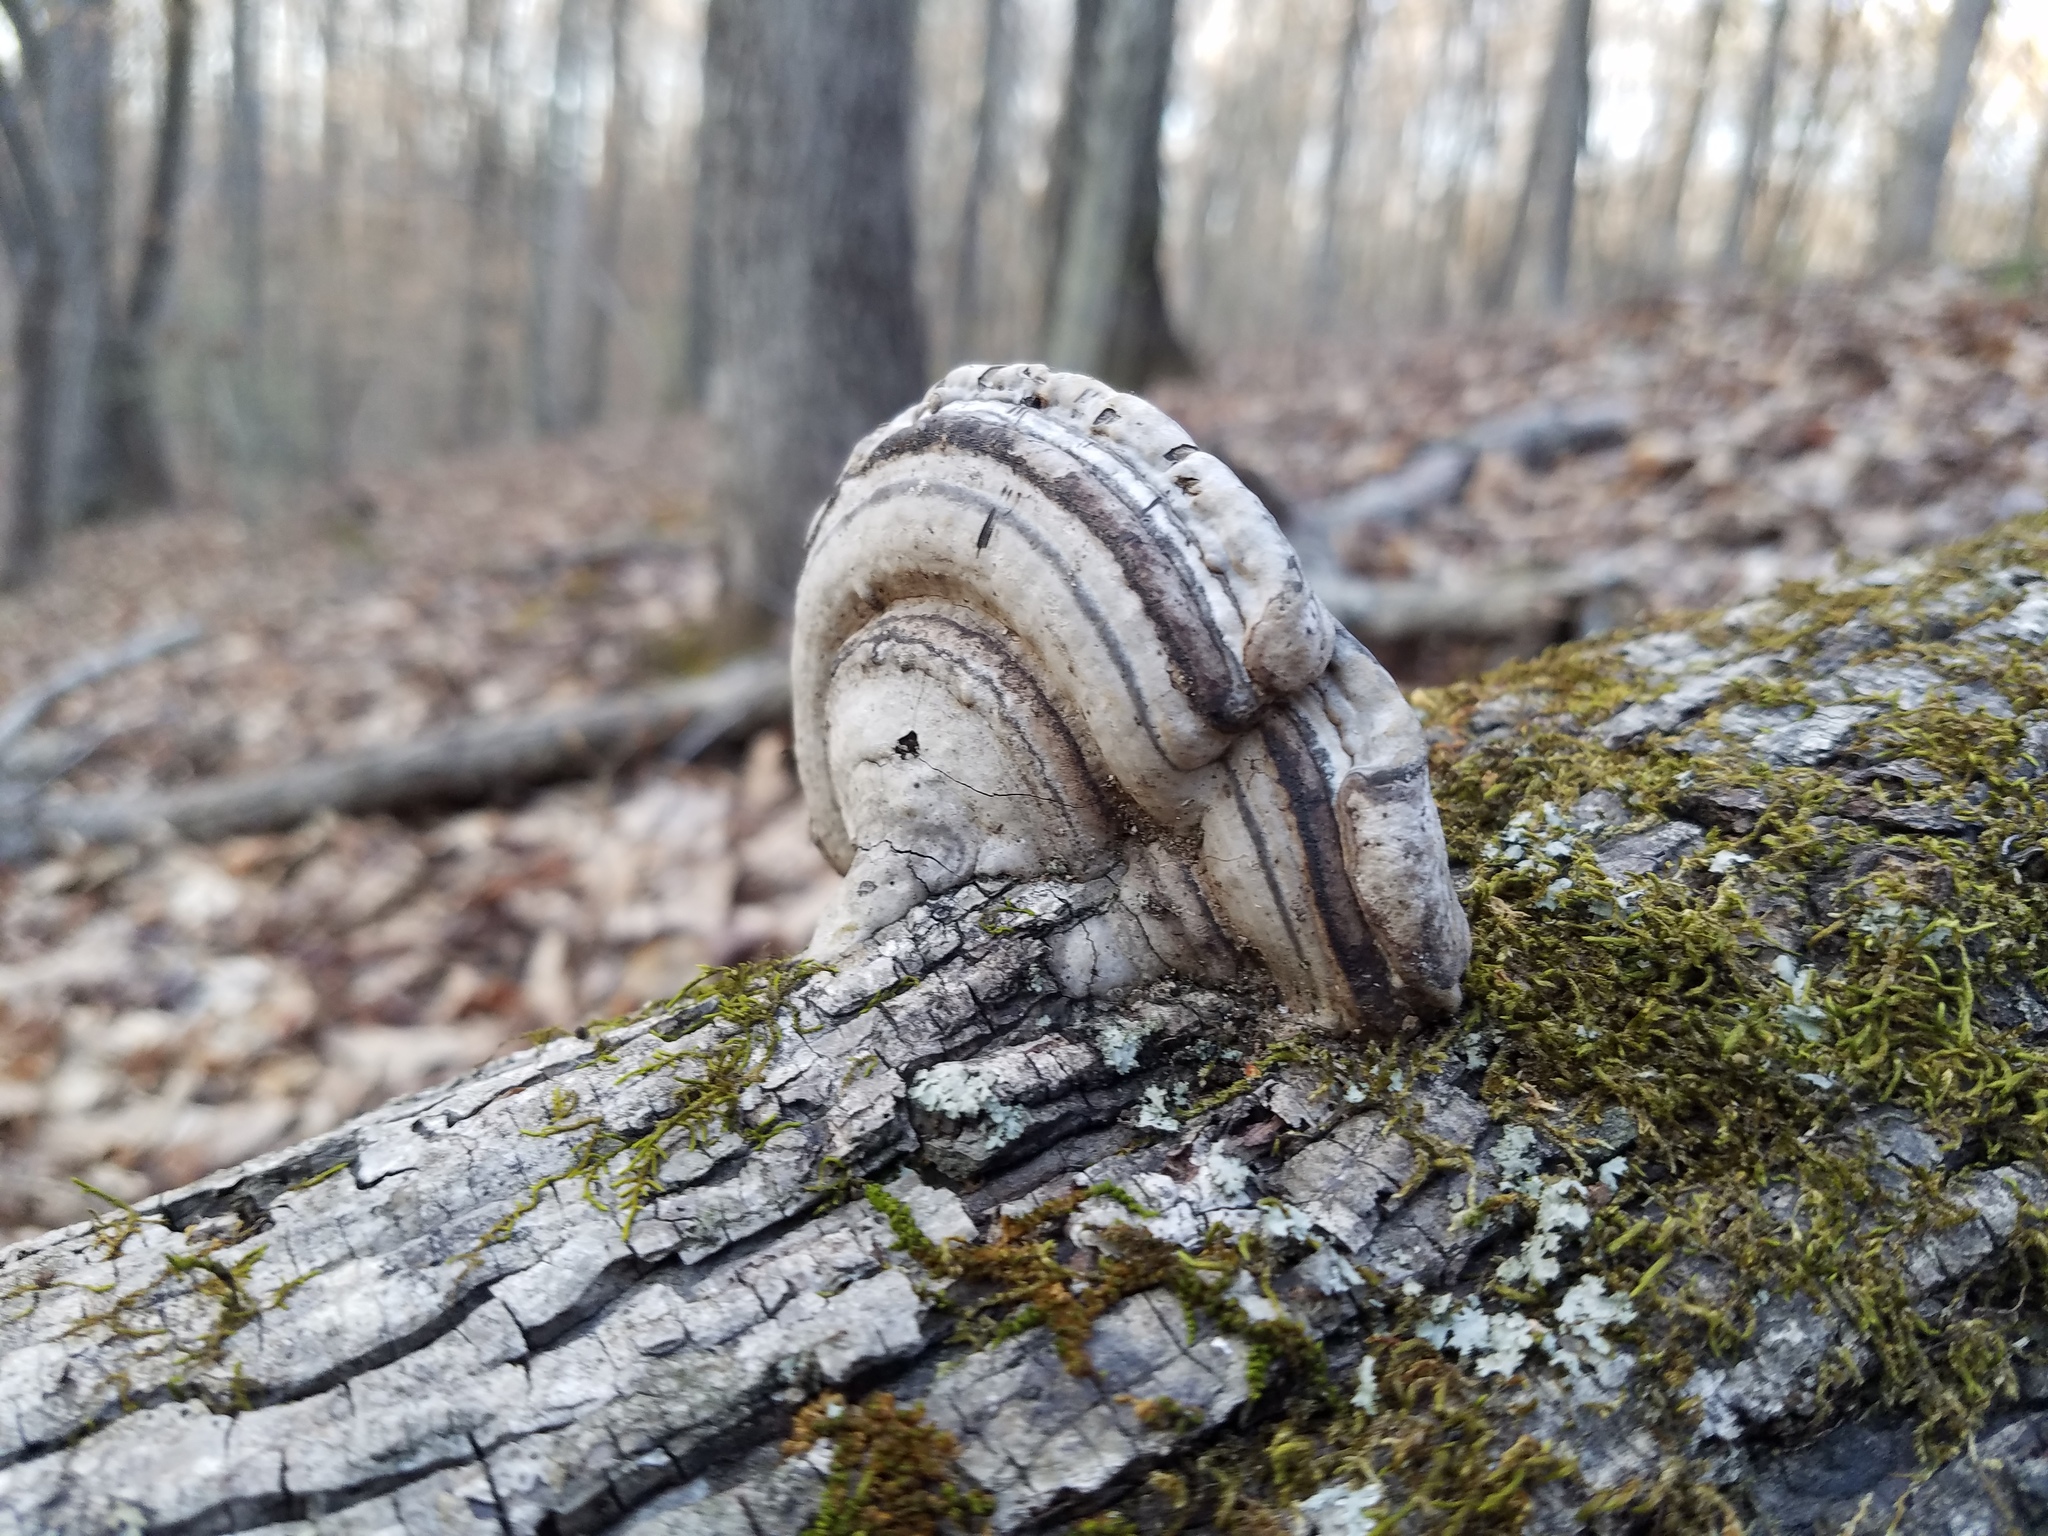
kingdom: Fungi
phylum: Basidiomycota
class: Agaricomycetes
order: Polyporales
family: Polyporaceae
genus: Fomes
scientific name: Fomes fasciatus
